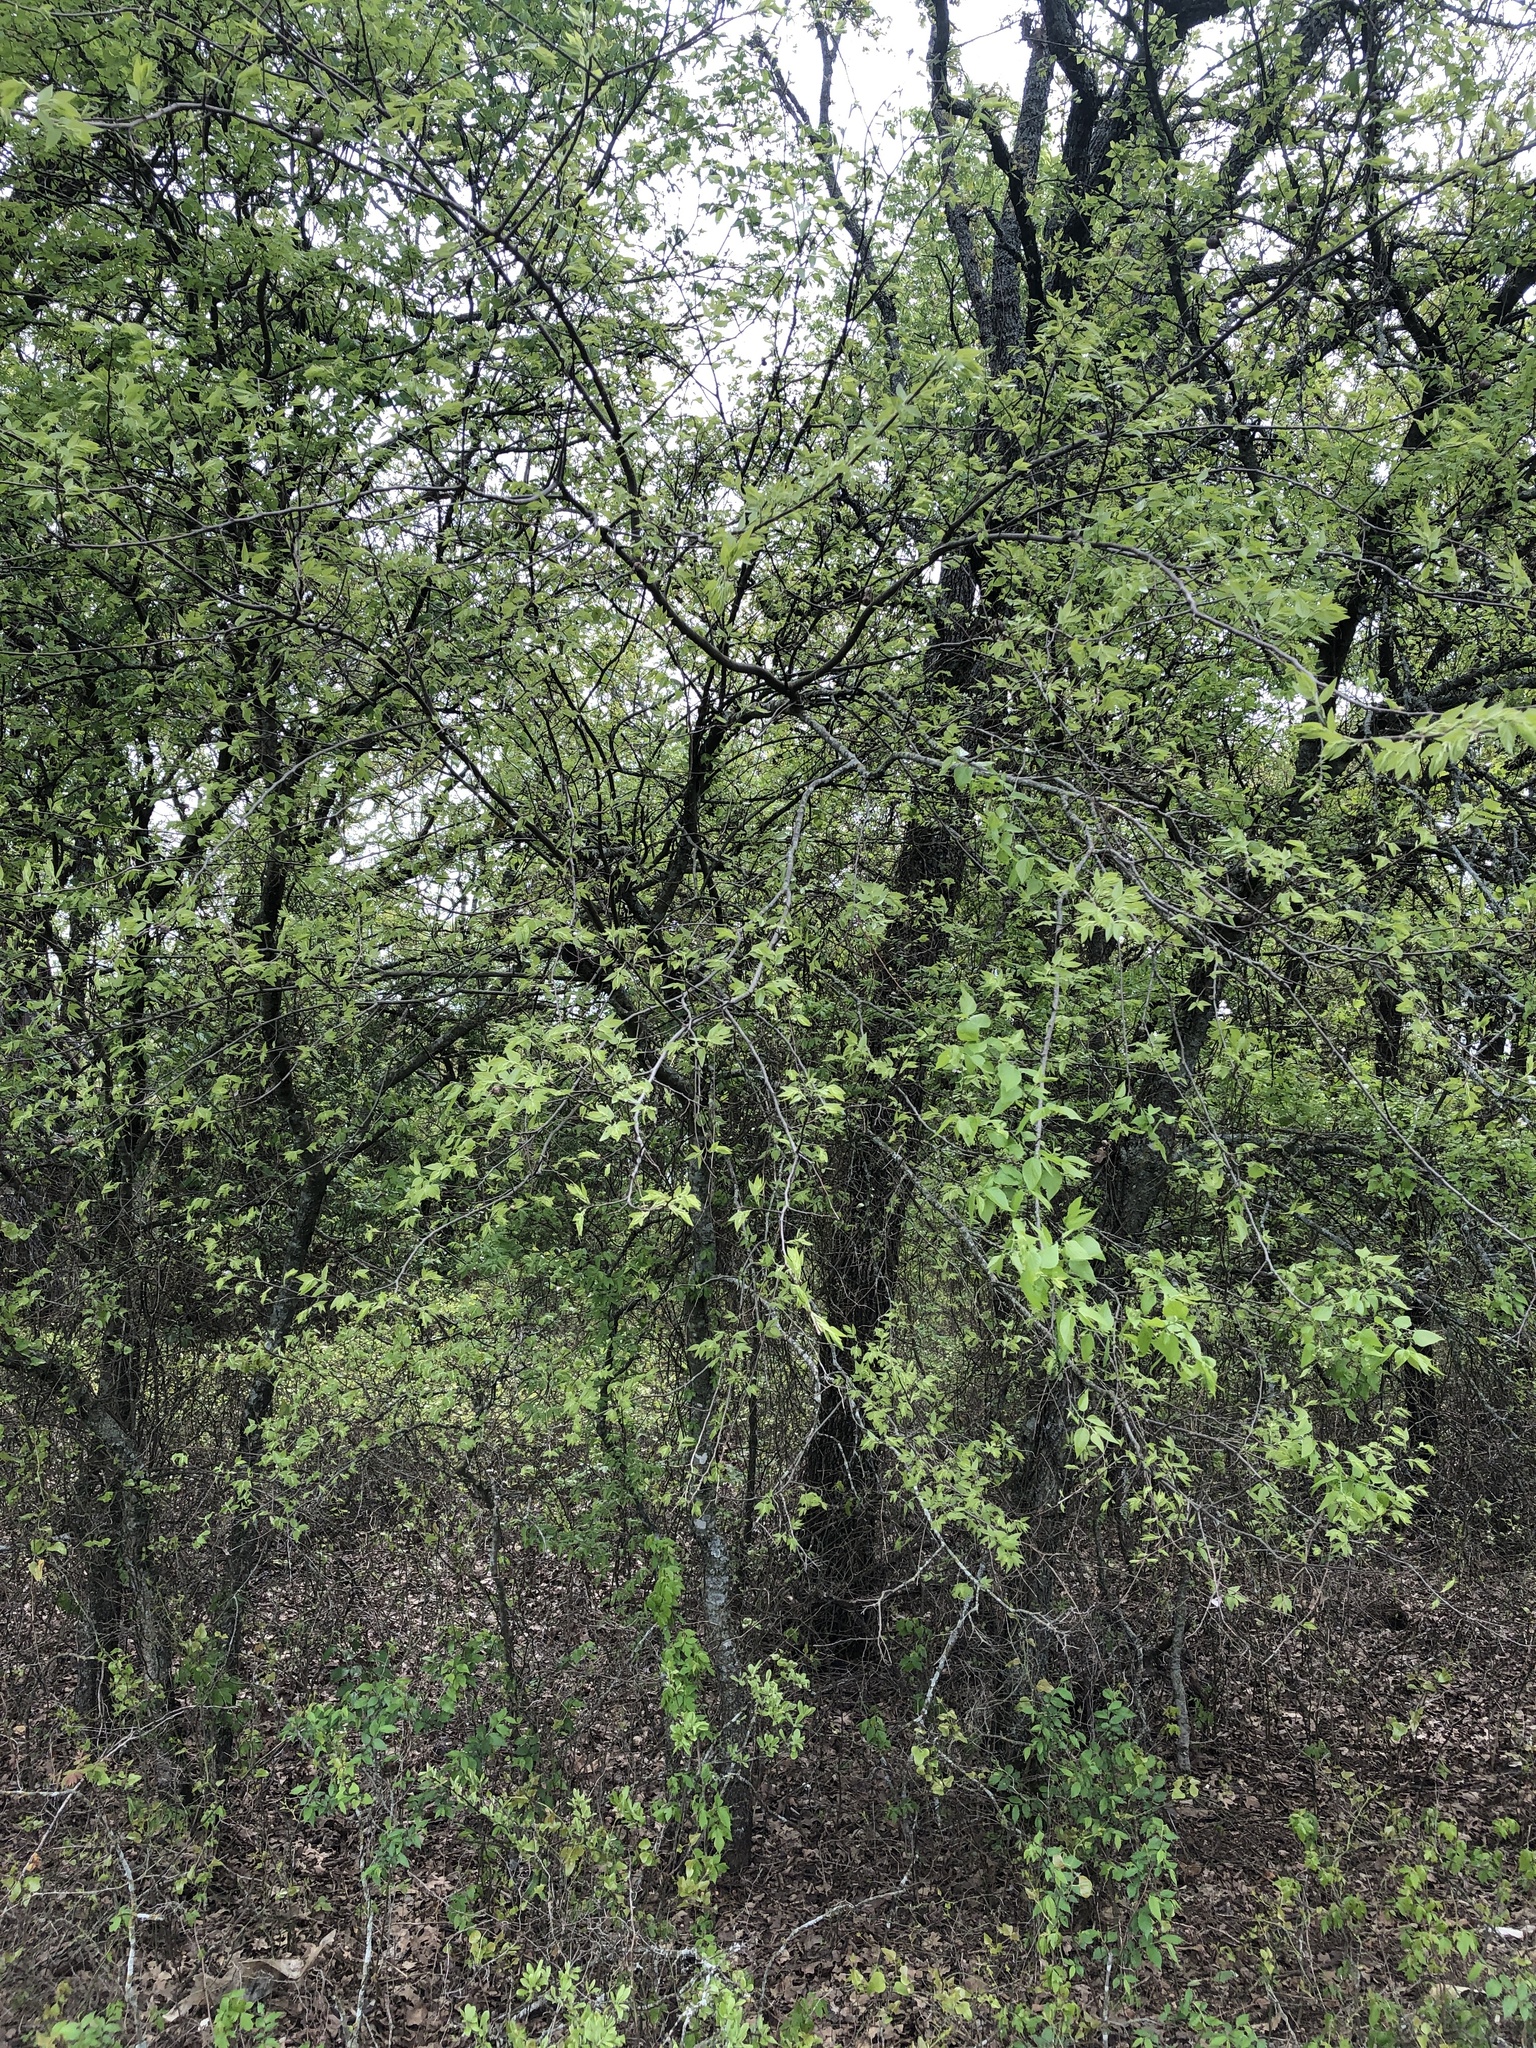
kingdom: Plantae
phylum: Tracheophyta
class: Magnoliopsida
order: Rosales
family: Cannabaceae
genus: Celtis
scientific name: Celtis laevigata
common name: Sugarberry
